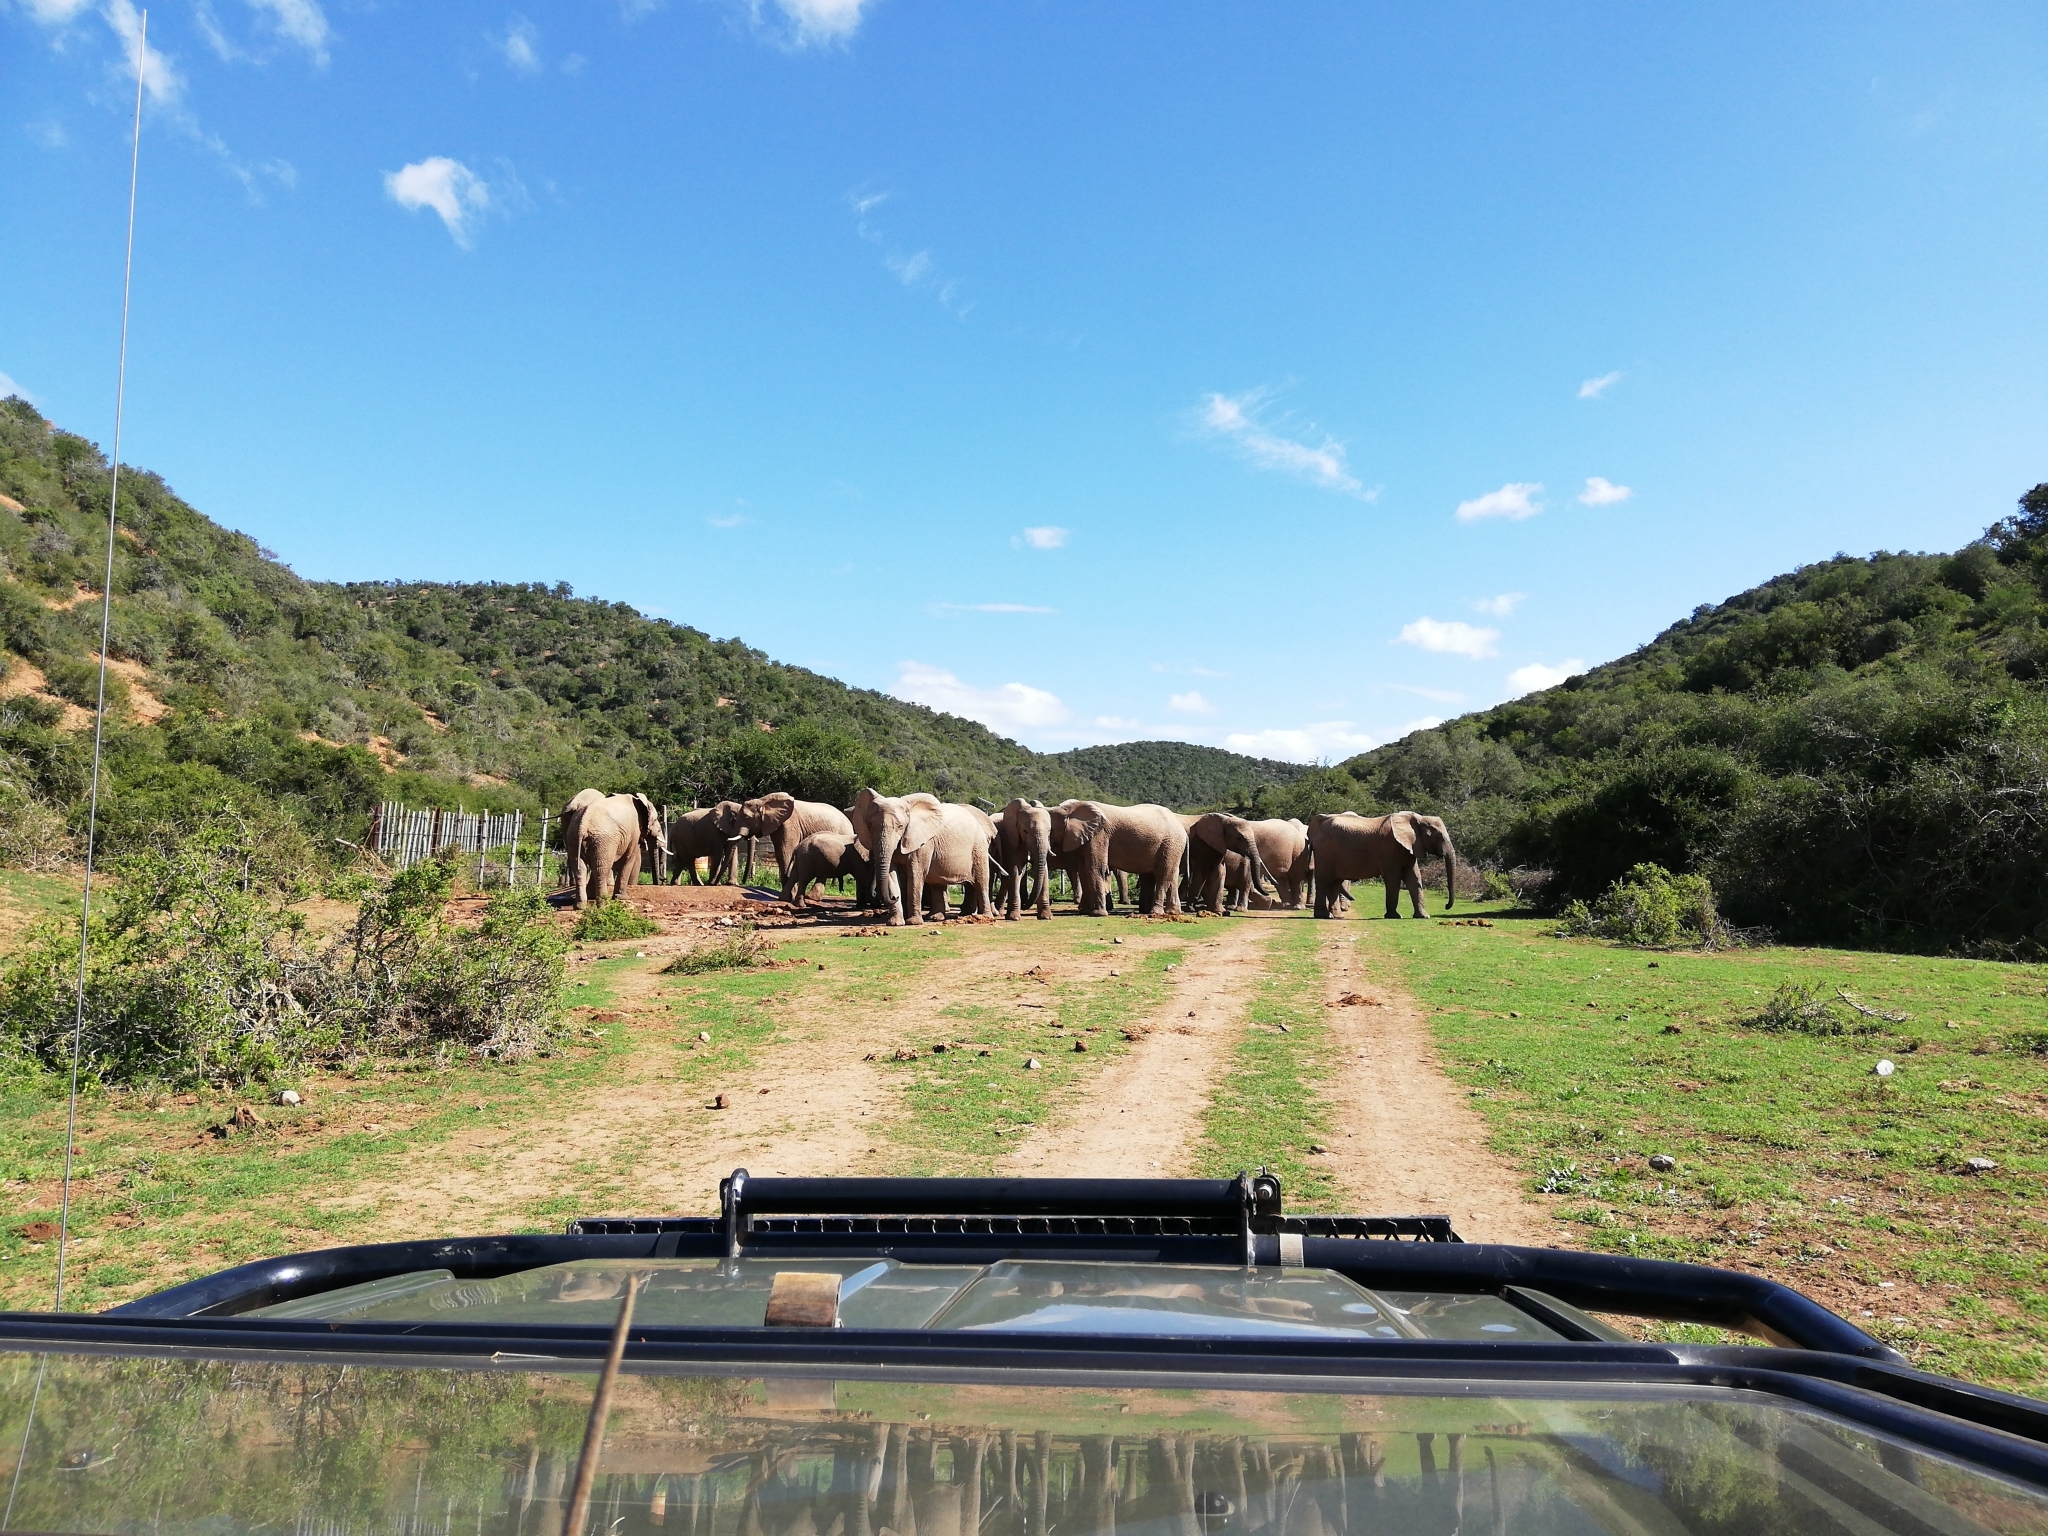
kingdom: Animalia
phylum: Chordata
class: Mammalia
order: Proboscidea
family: Elephantidae
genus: Loxodonta
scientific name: Loxodonta africana
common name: African elephant
